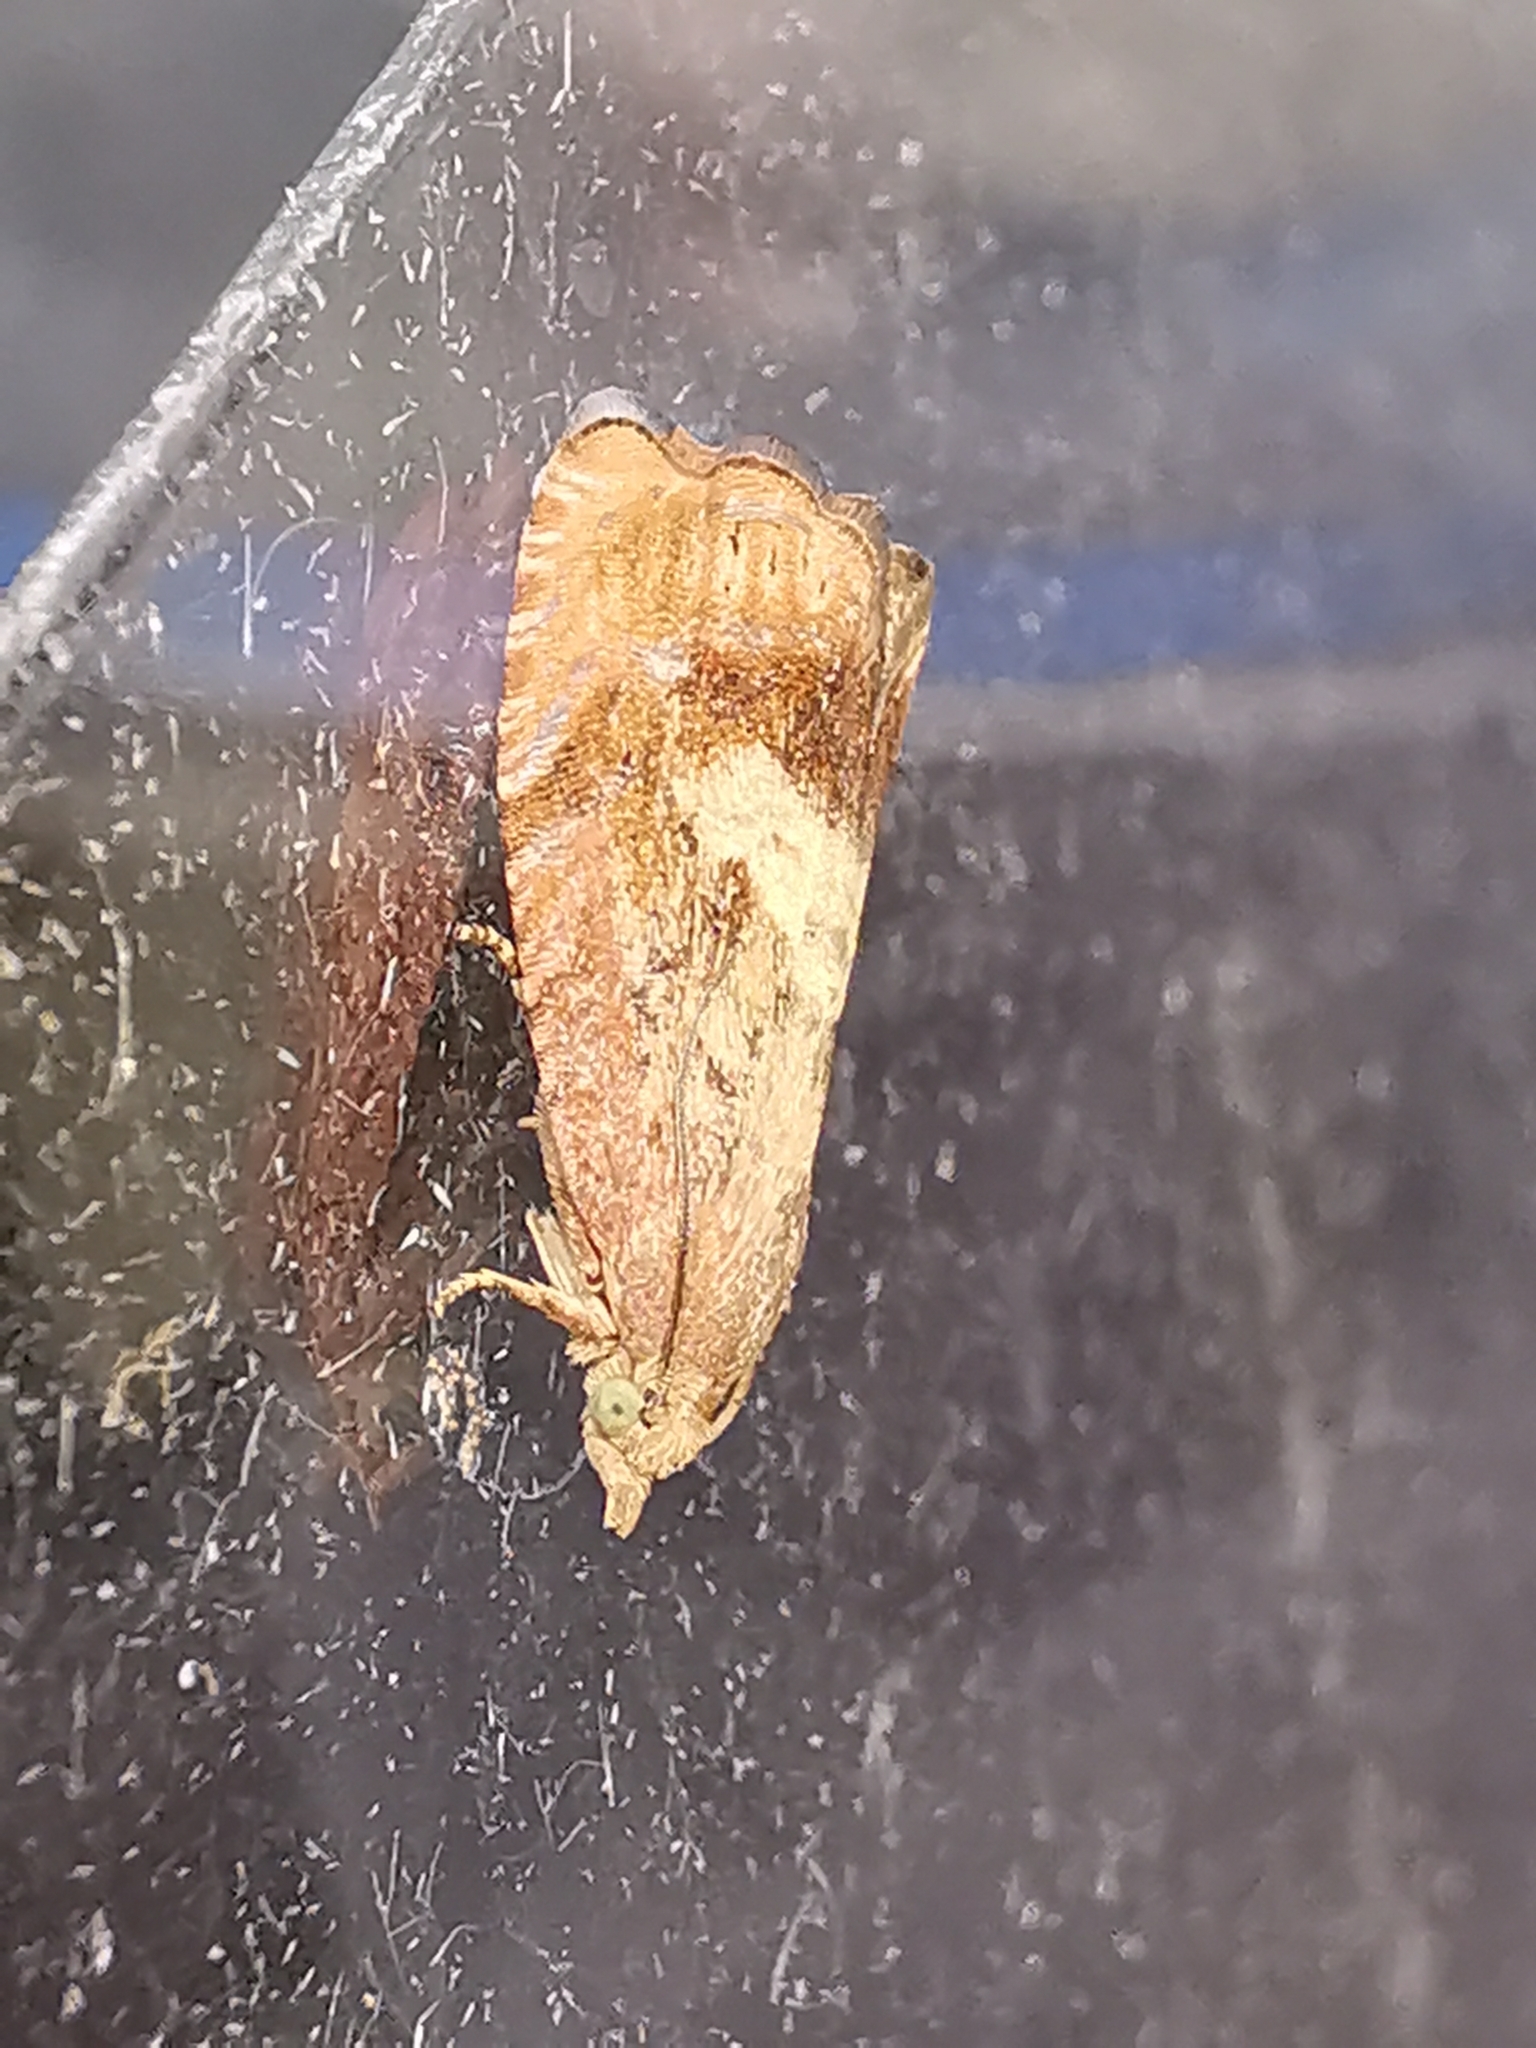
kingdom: Animalia
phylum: Arthropoda
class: Insecta
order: Lepidoptera
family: Tortricidae
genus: Cydia
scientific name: Cydia amplana
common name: Vagrant piercer
